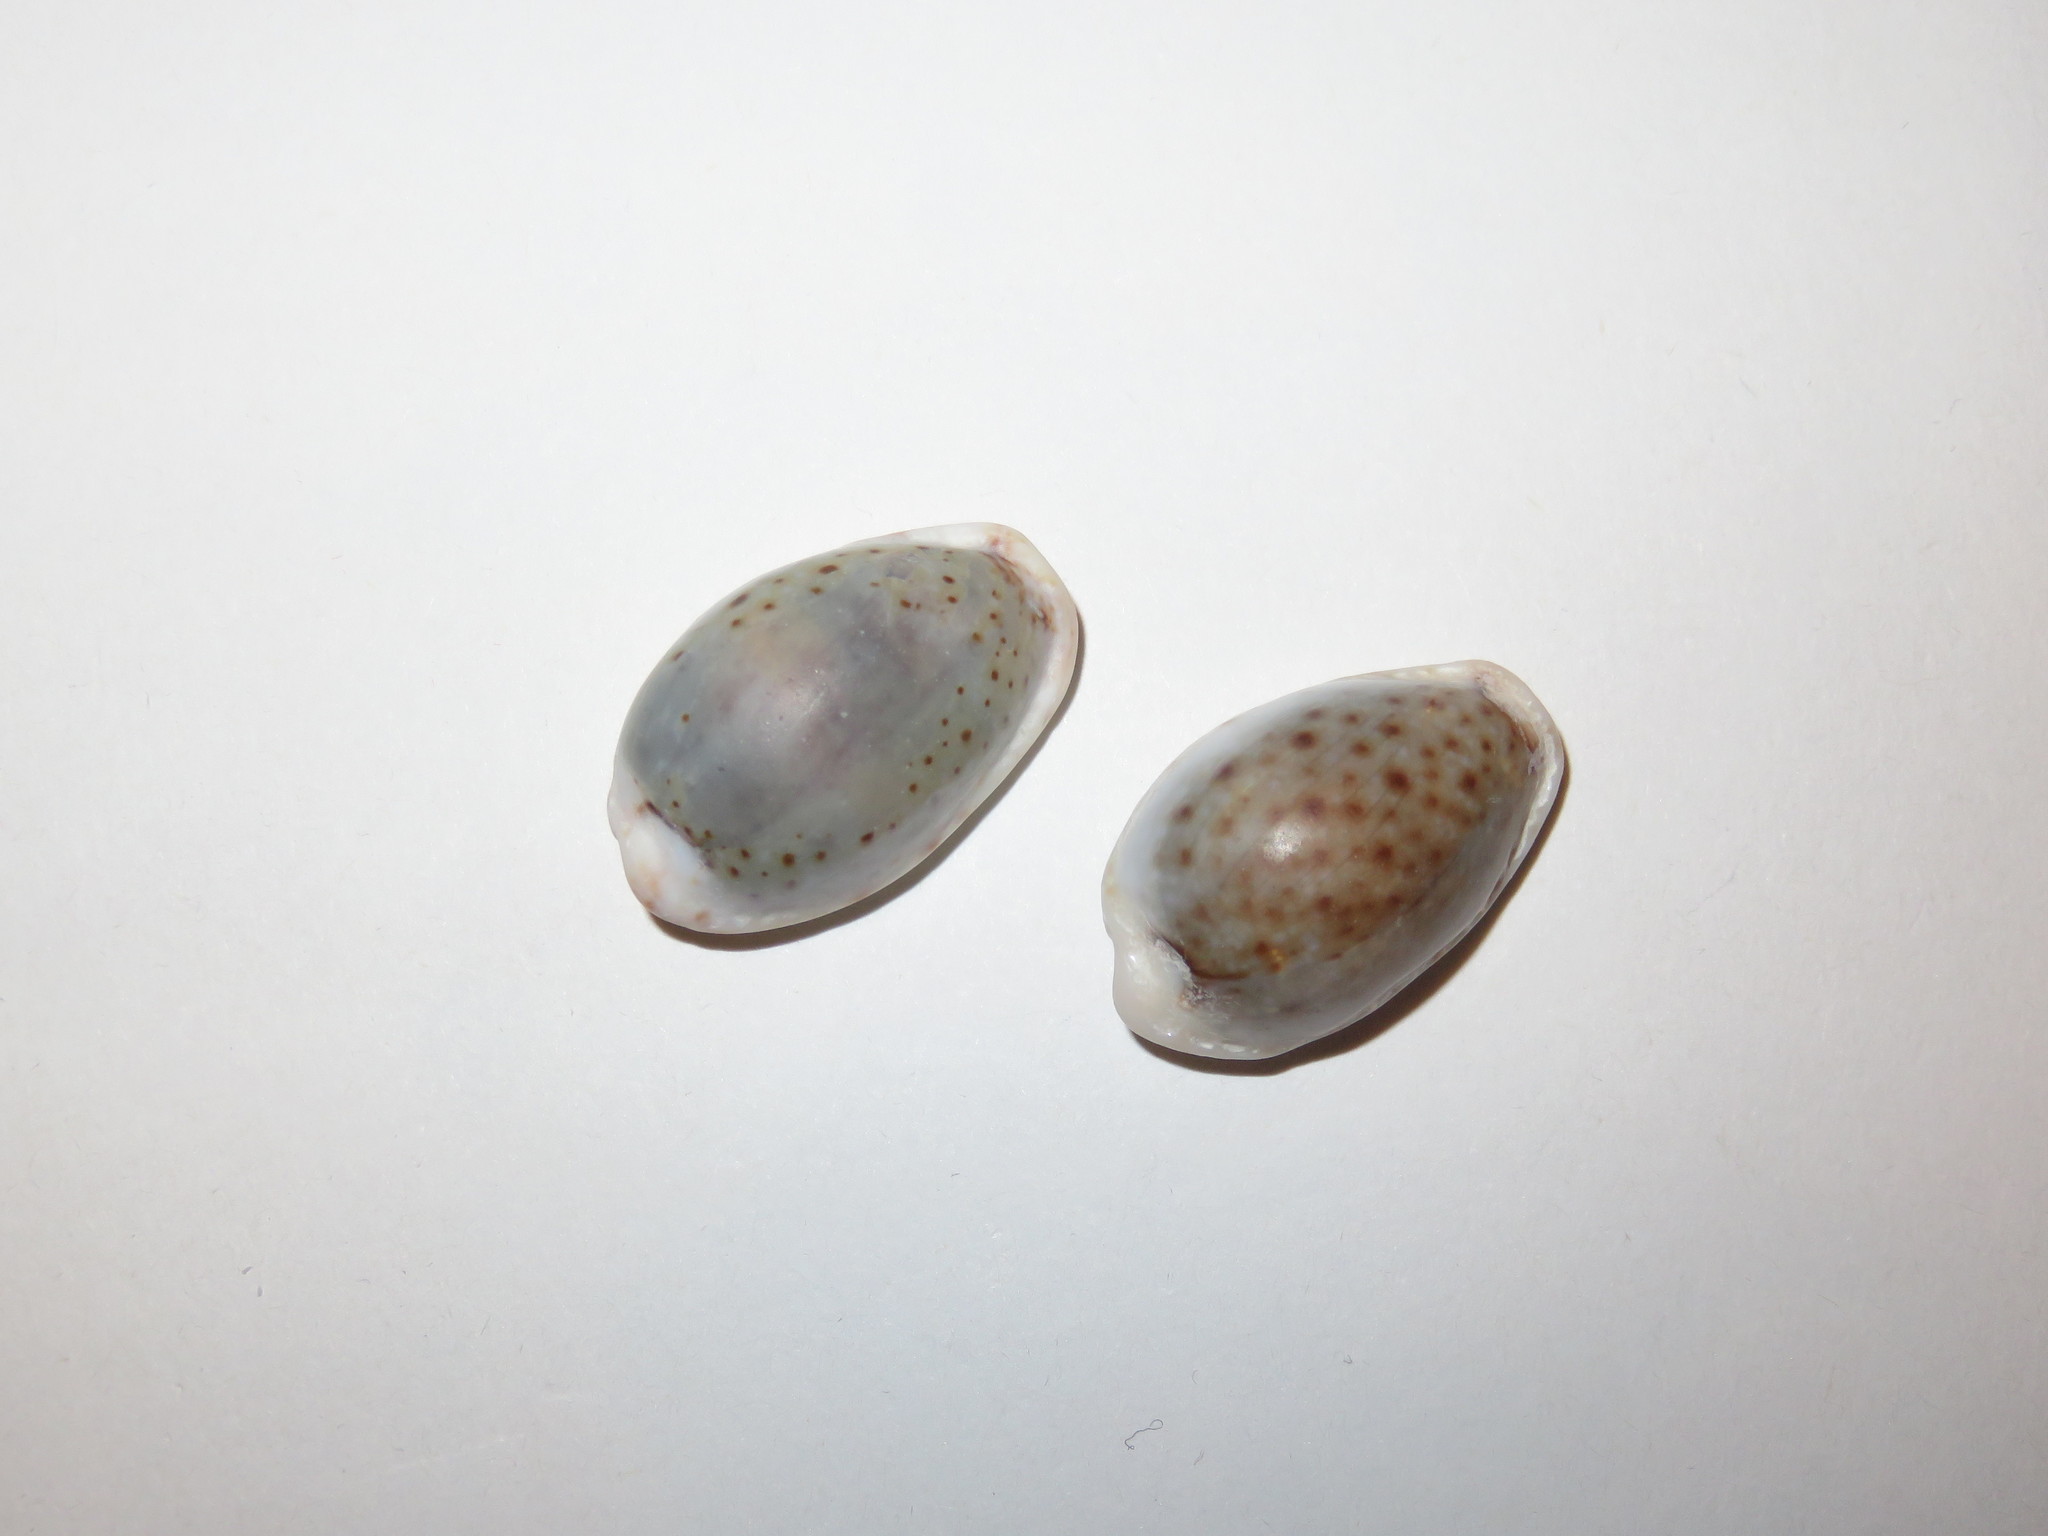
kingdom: Animalia
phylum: Mollusca
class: Gastropoda
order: Littorinimorpha
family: Cypraeidae
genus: Naria
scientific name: Naria boivinii
